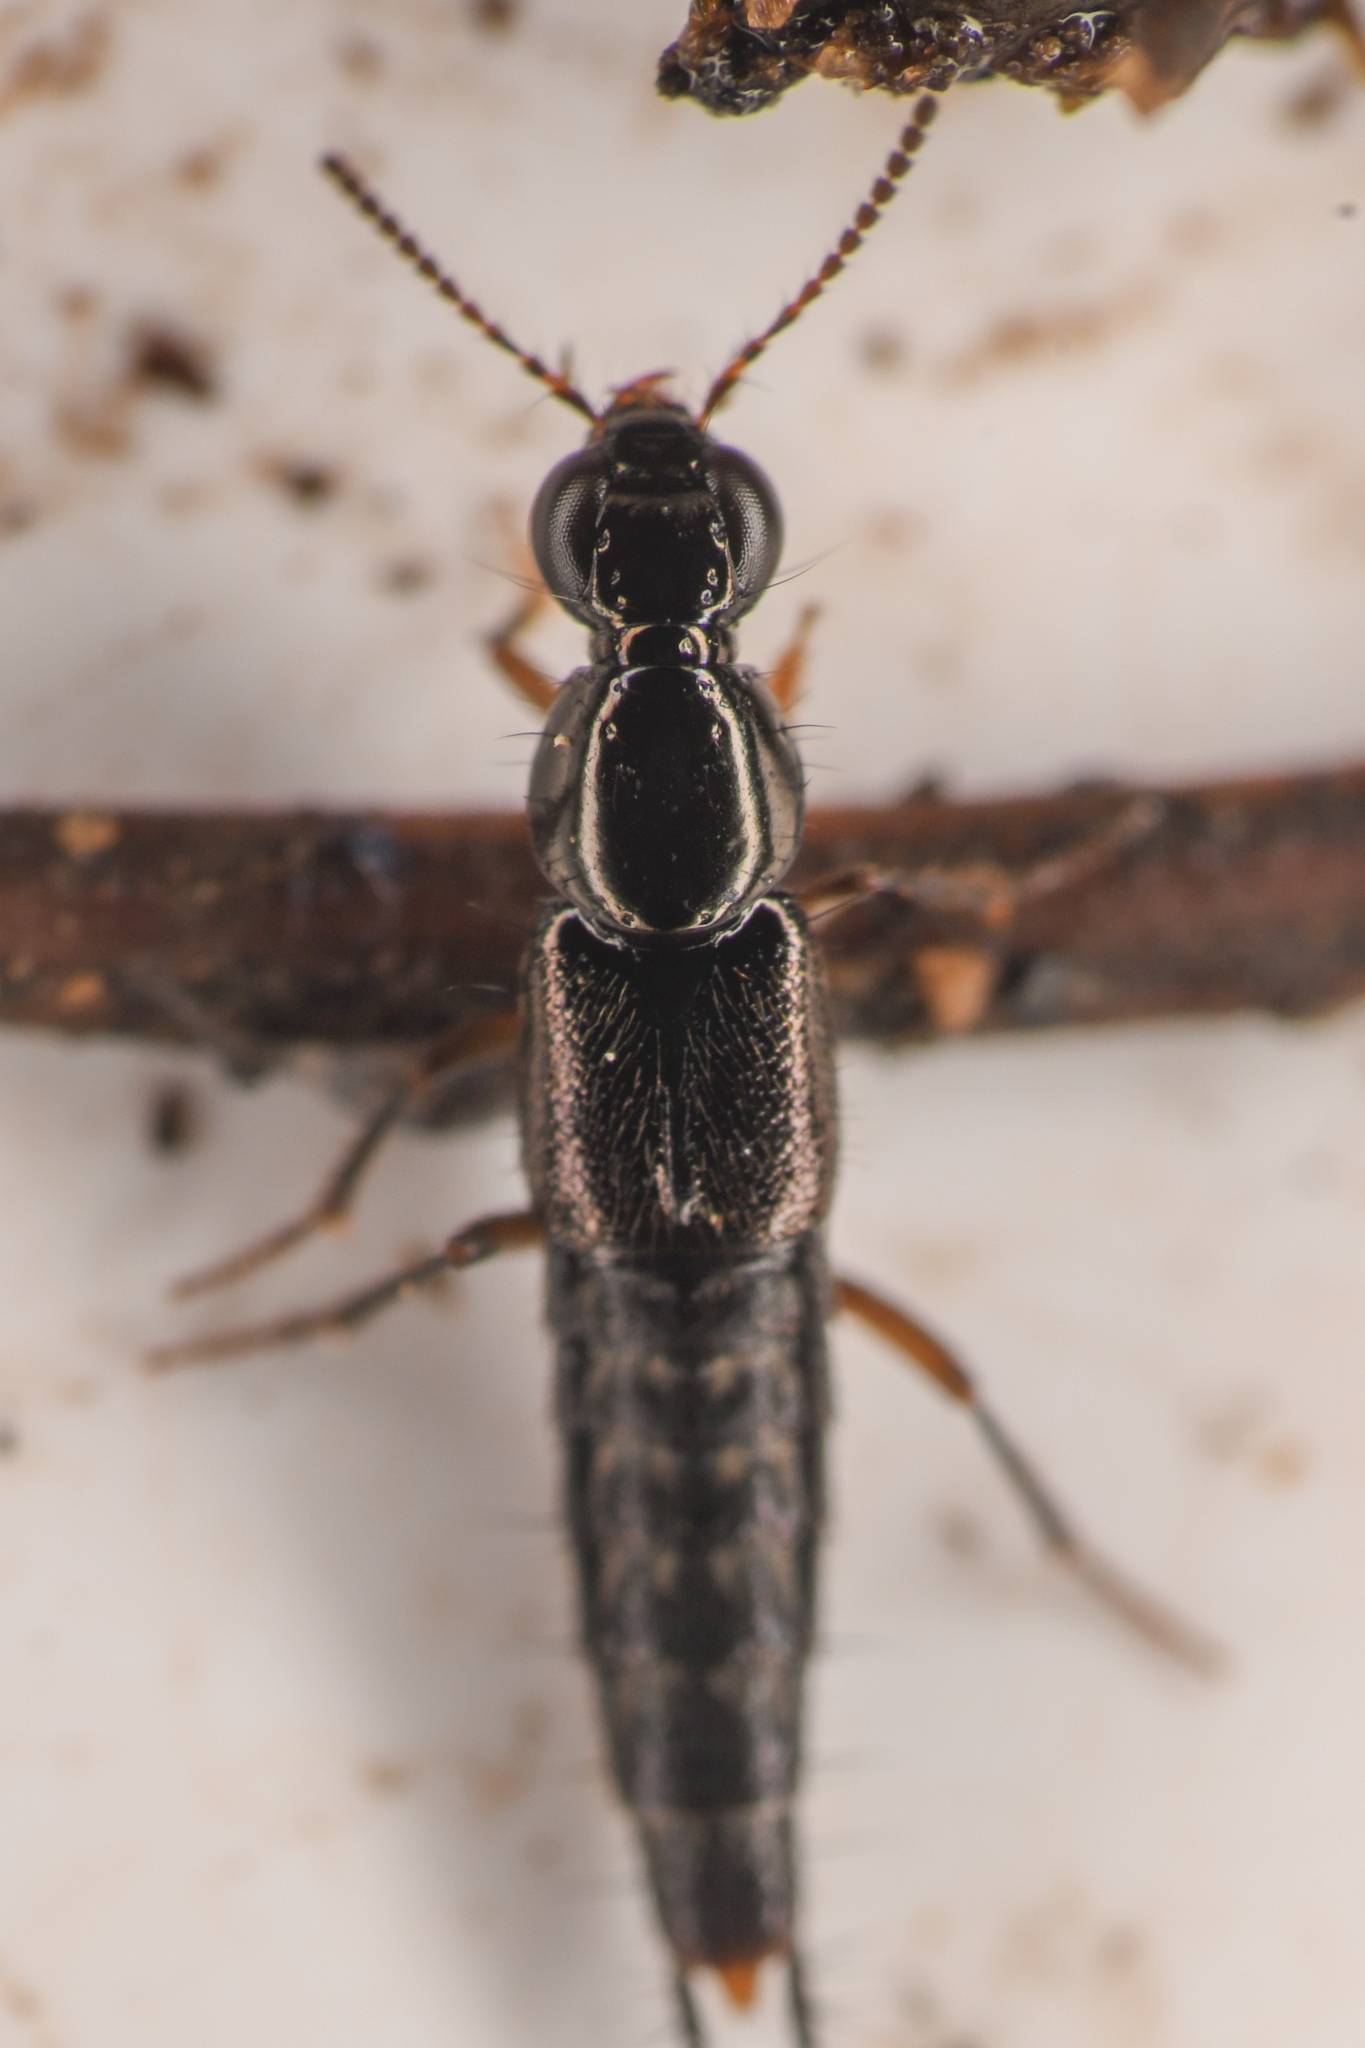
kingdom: Animalia
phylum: Arthropoda
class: Insecta
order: Coleoptera
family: Staphylinidae
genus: Quedius
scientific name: Quedius prostans
